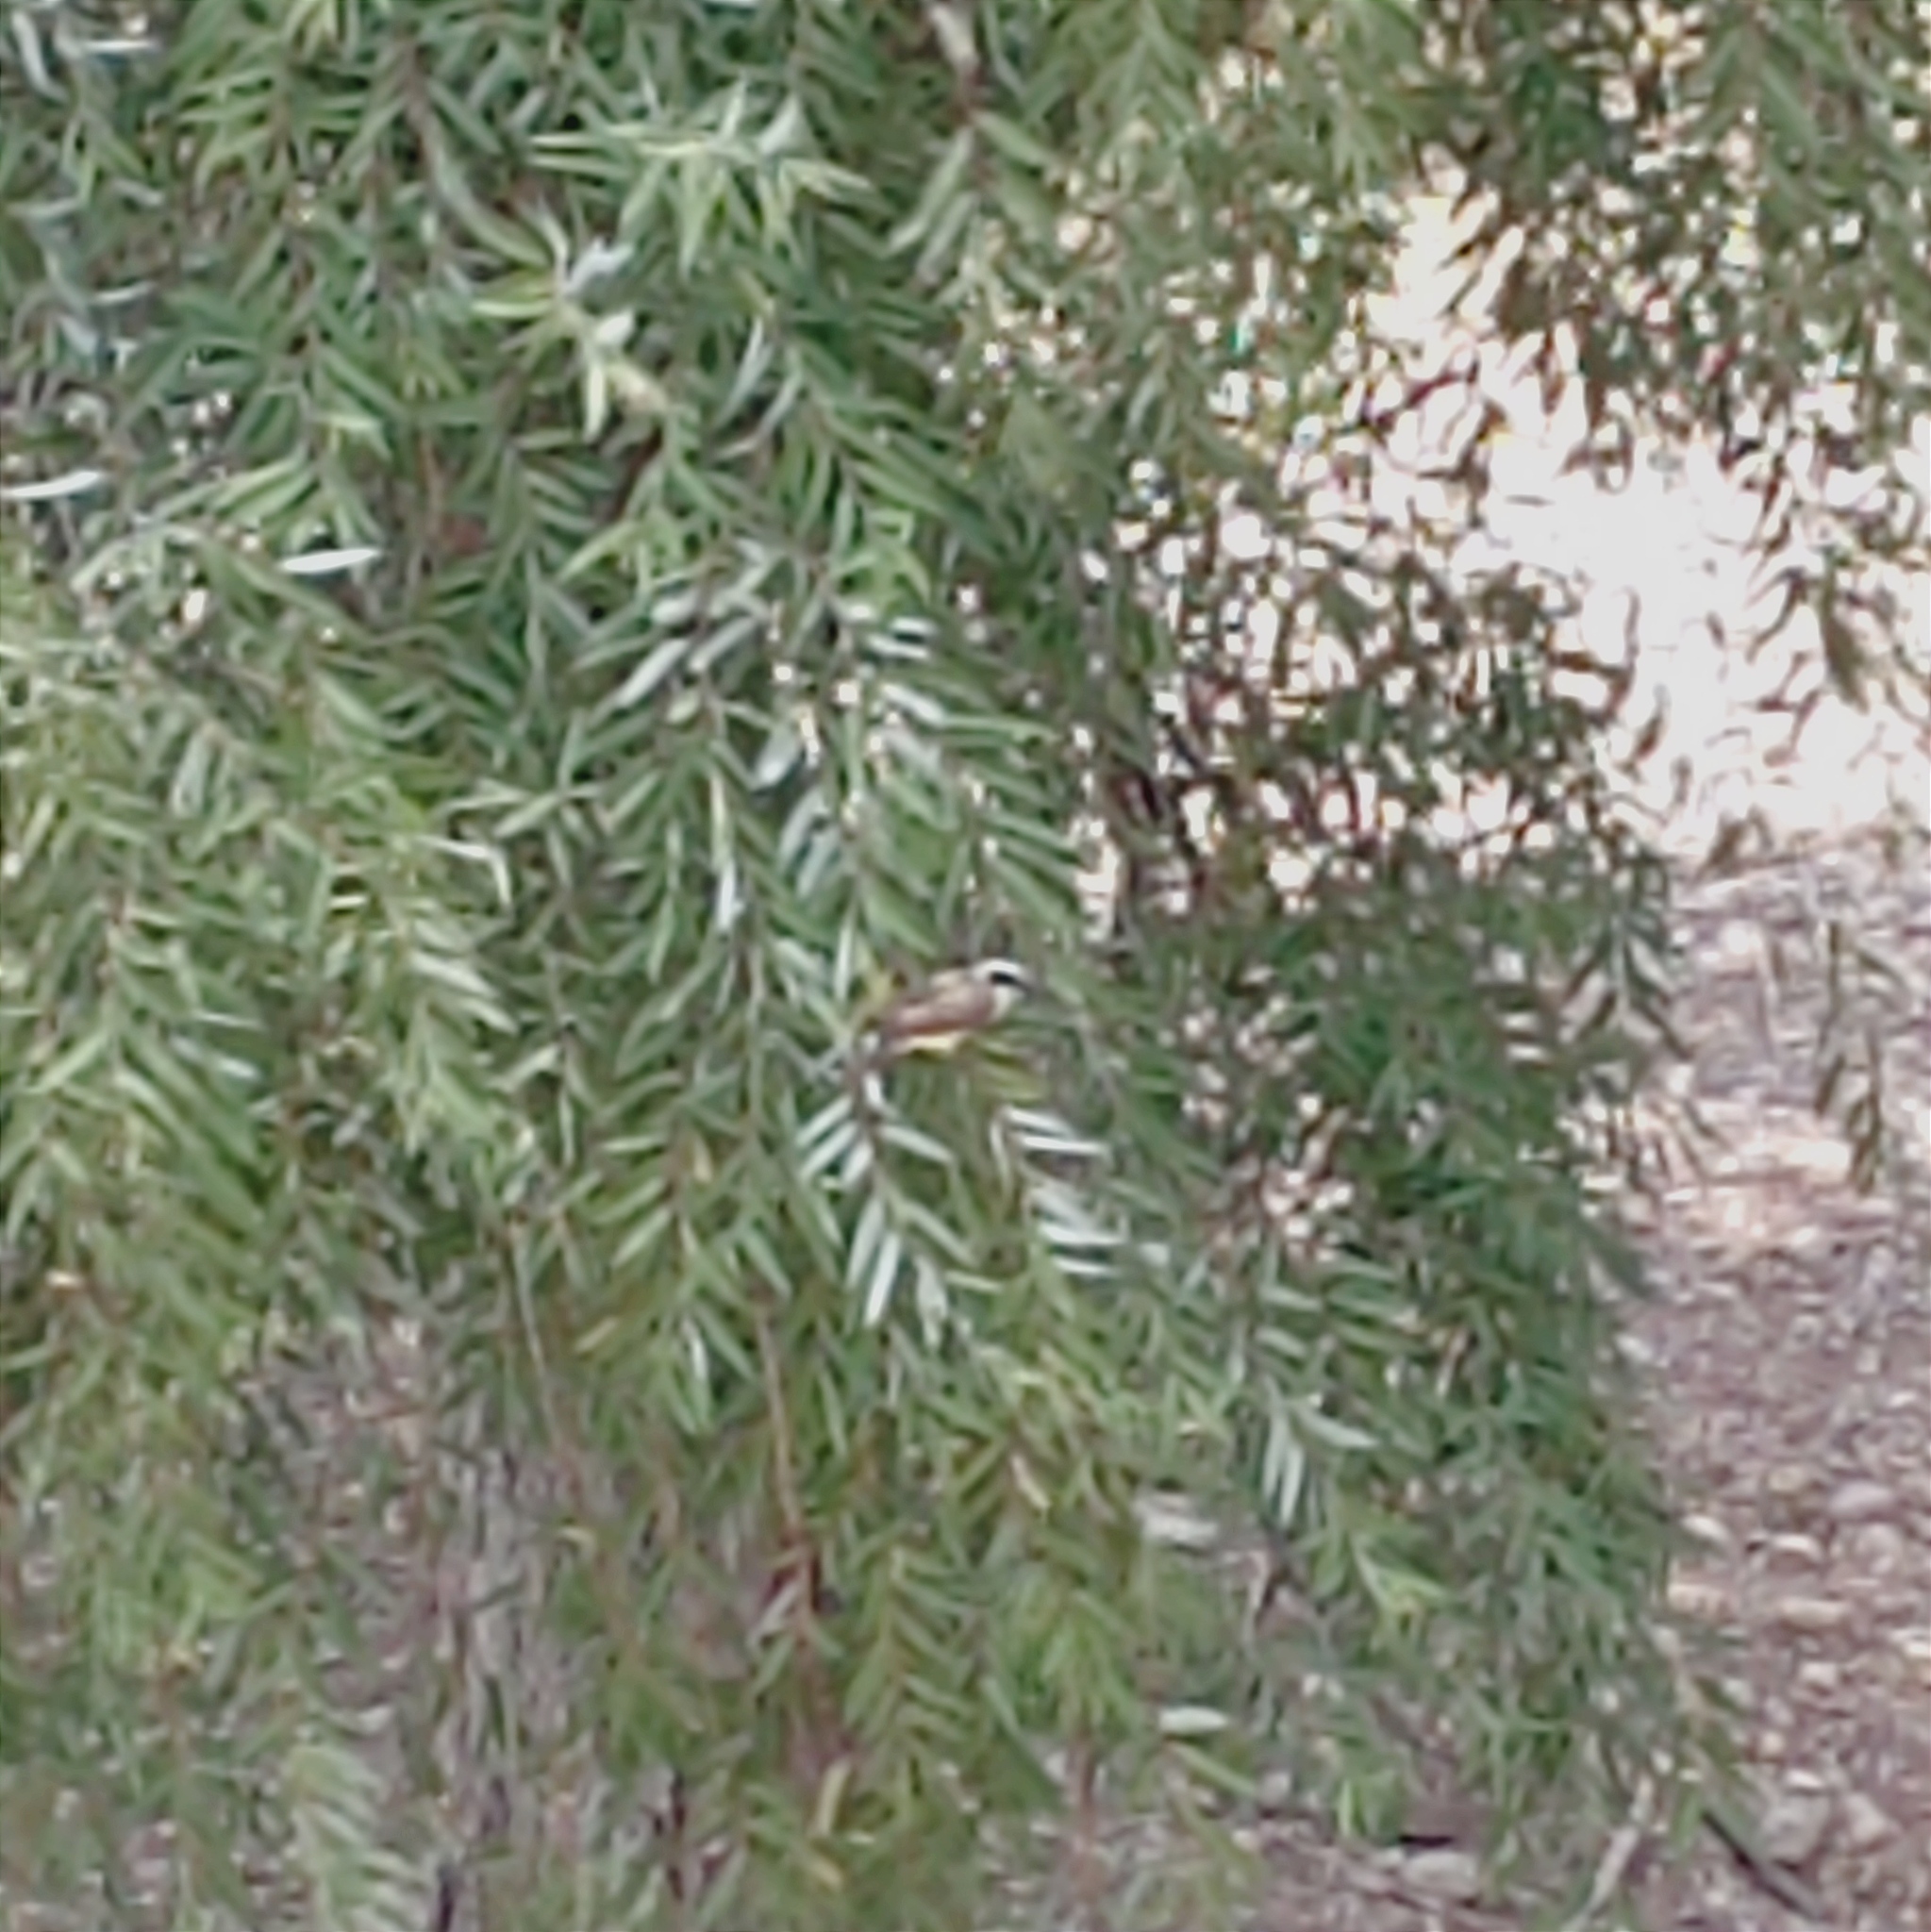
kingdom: Animalia
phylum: Chordata
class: Aves
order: Passeriformes
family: Tyrannidae
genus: Pitangus
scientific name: Pitangus sulphuratus
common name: Great kiskadee
